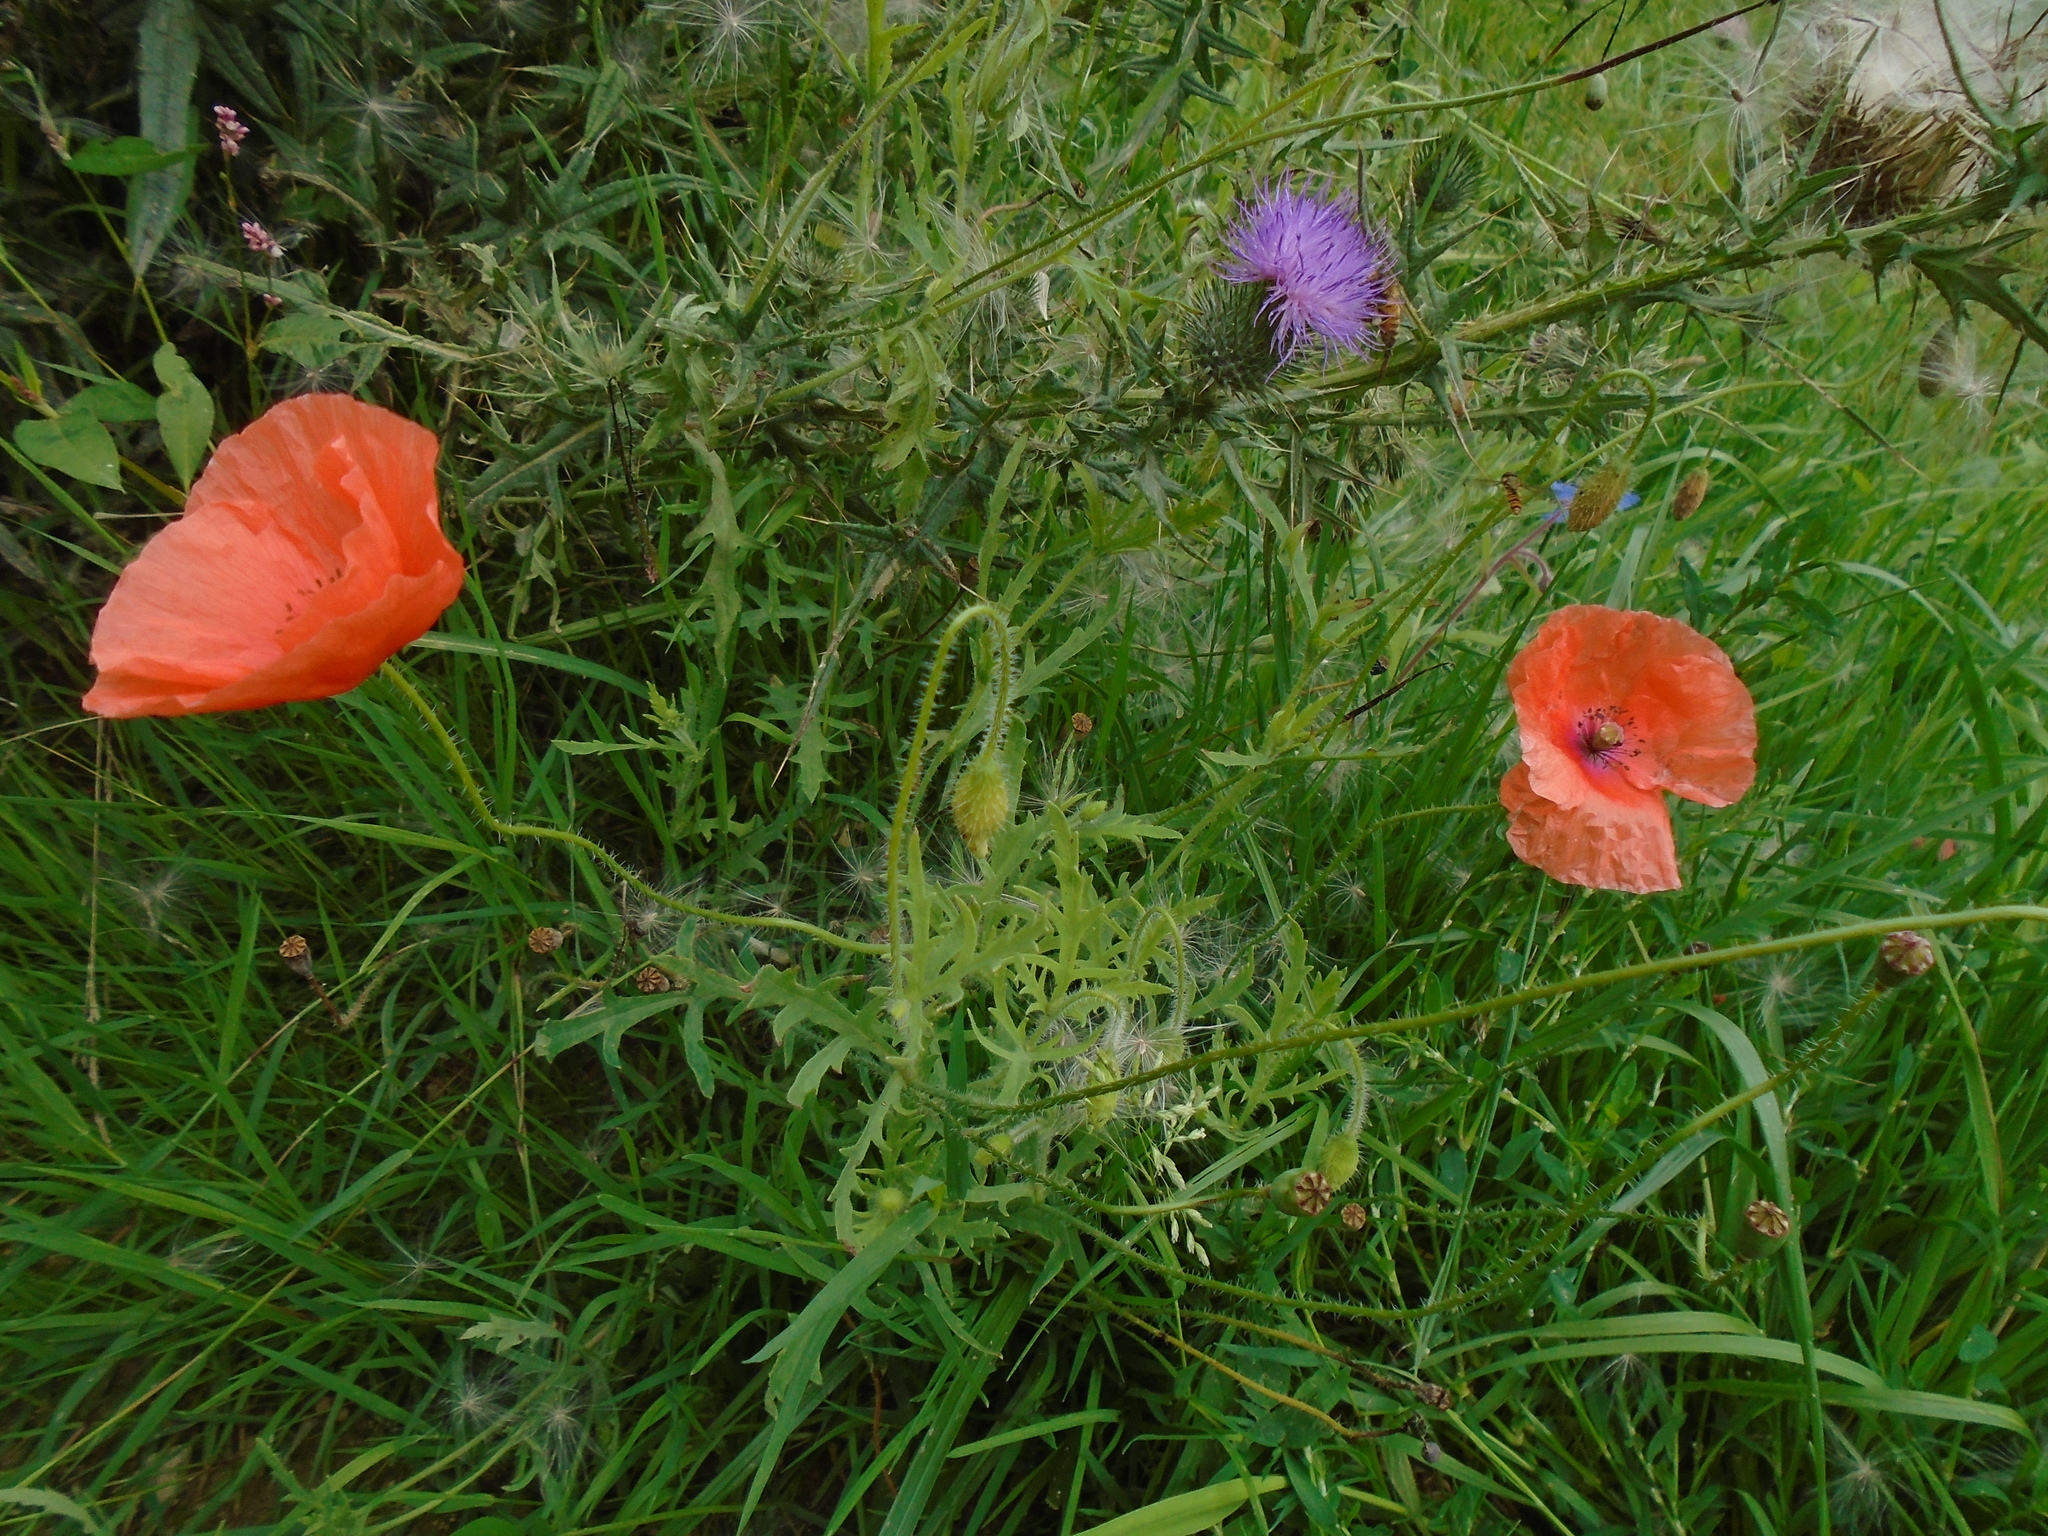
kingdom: Plantae
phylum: Tracheophyta
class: Magnoliopsida
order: Ranunculales
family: Papaveraceae
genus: Papaver
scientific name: Papaver rhoeas
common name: Corn poppy
